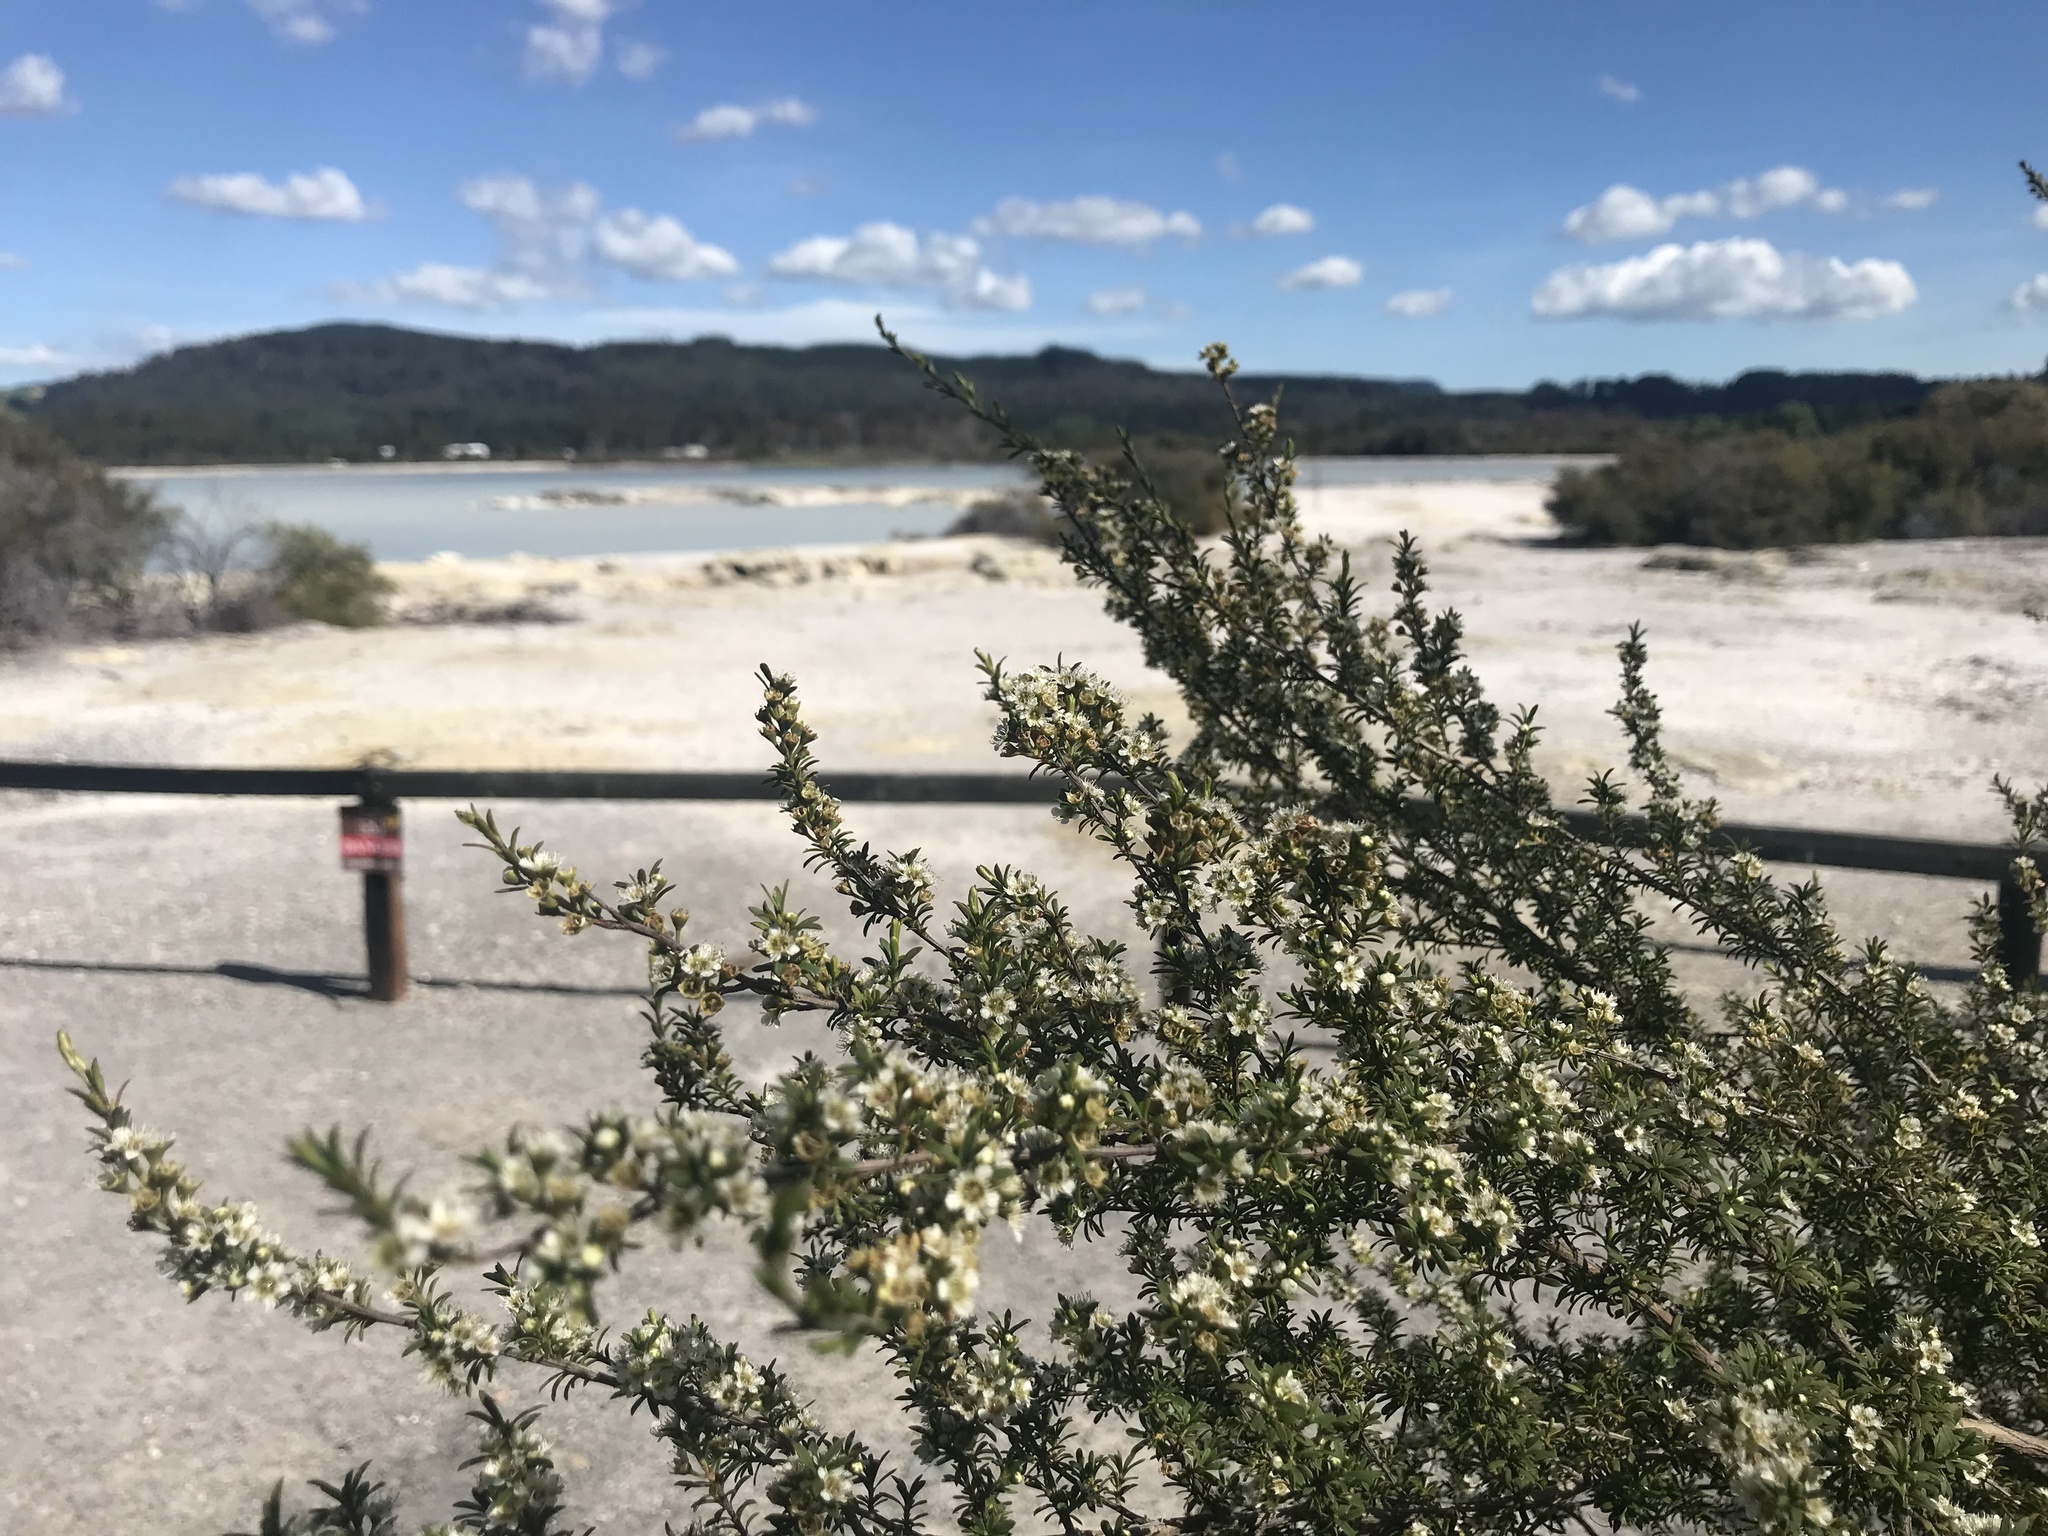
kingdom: Plantae
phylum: Tracheophyta
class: Magnoliopsida
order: Myrtales
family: Myrtaceae
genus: Kunzea
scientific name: Kunzea tenuicaulis
